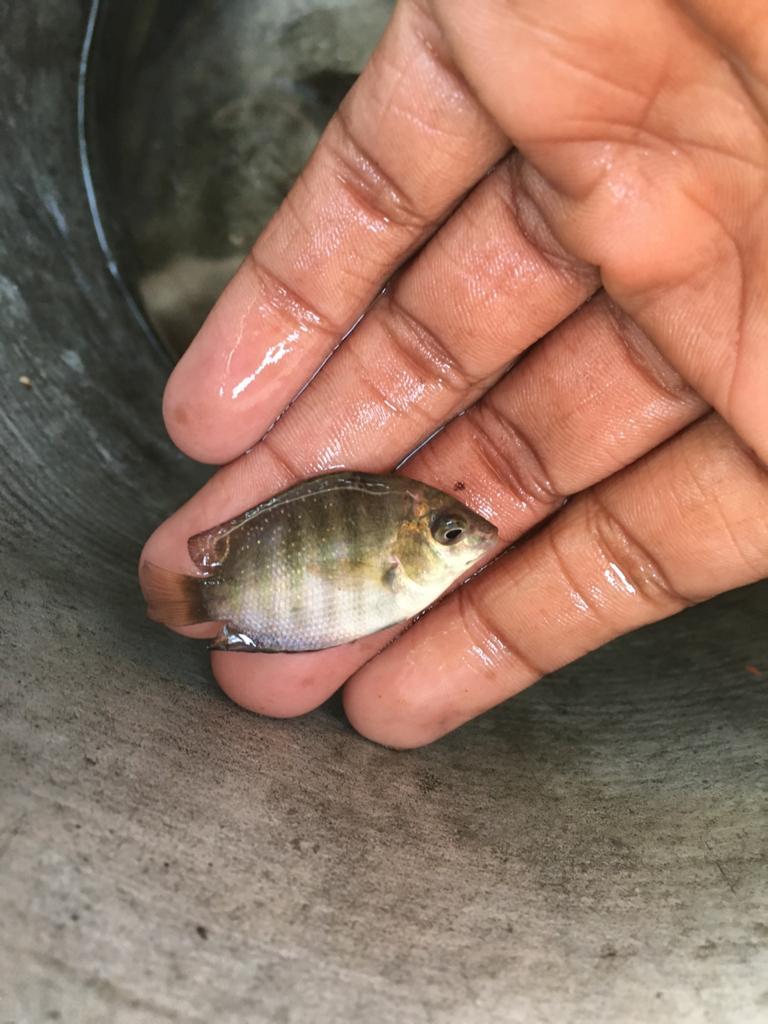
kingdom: Animalia
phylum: Chordata
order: Perciformes
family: Cichlidae
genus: Etroplus
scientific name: Etroplus suratensis
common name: Green chromide
